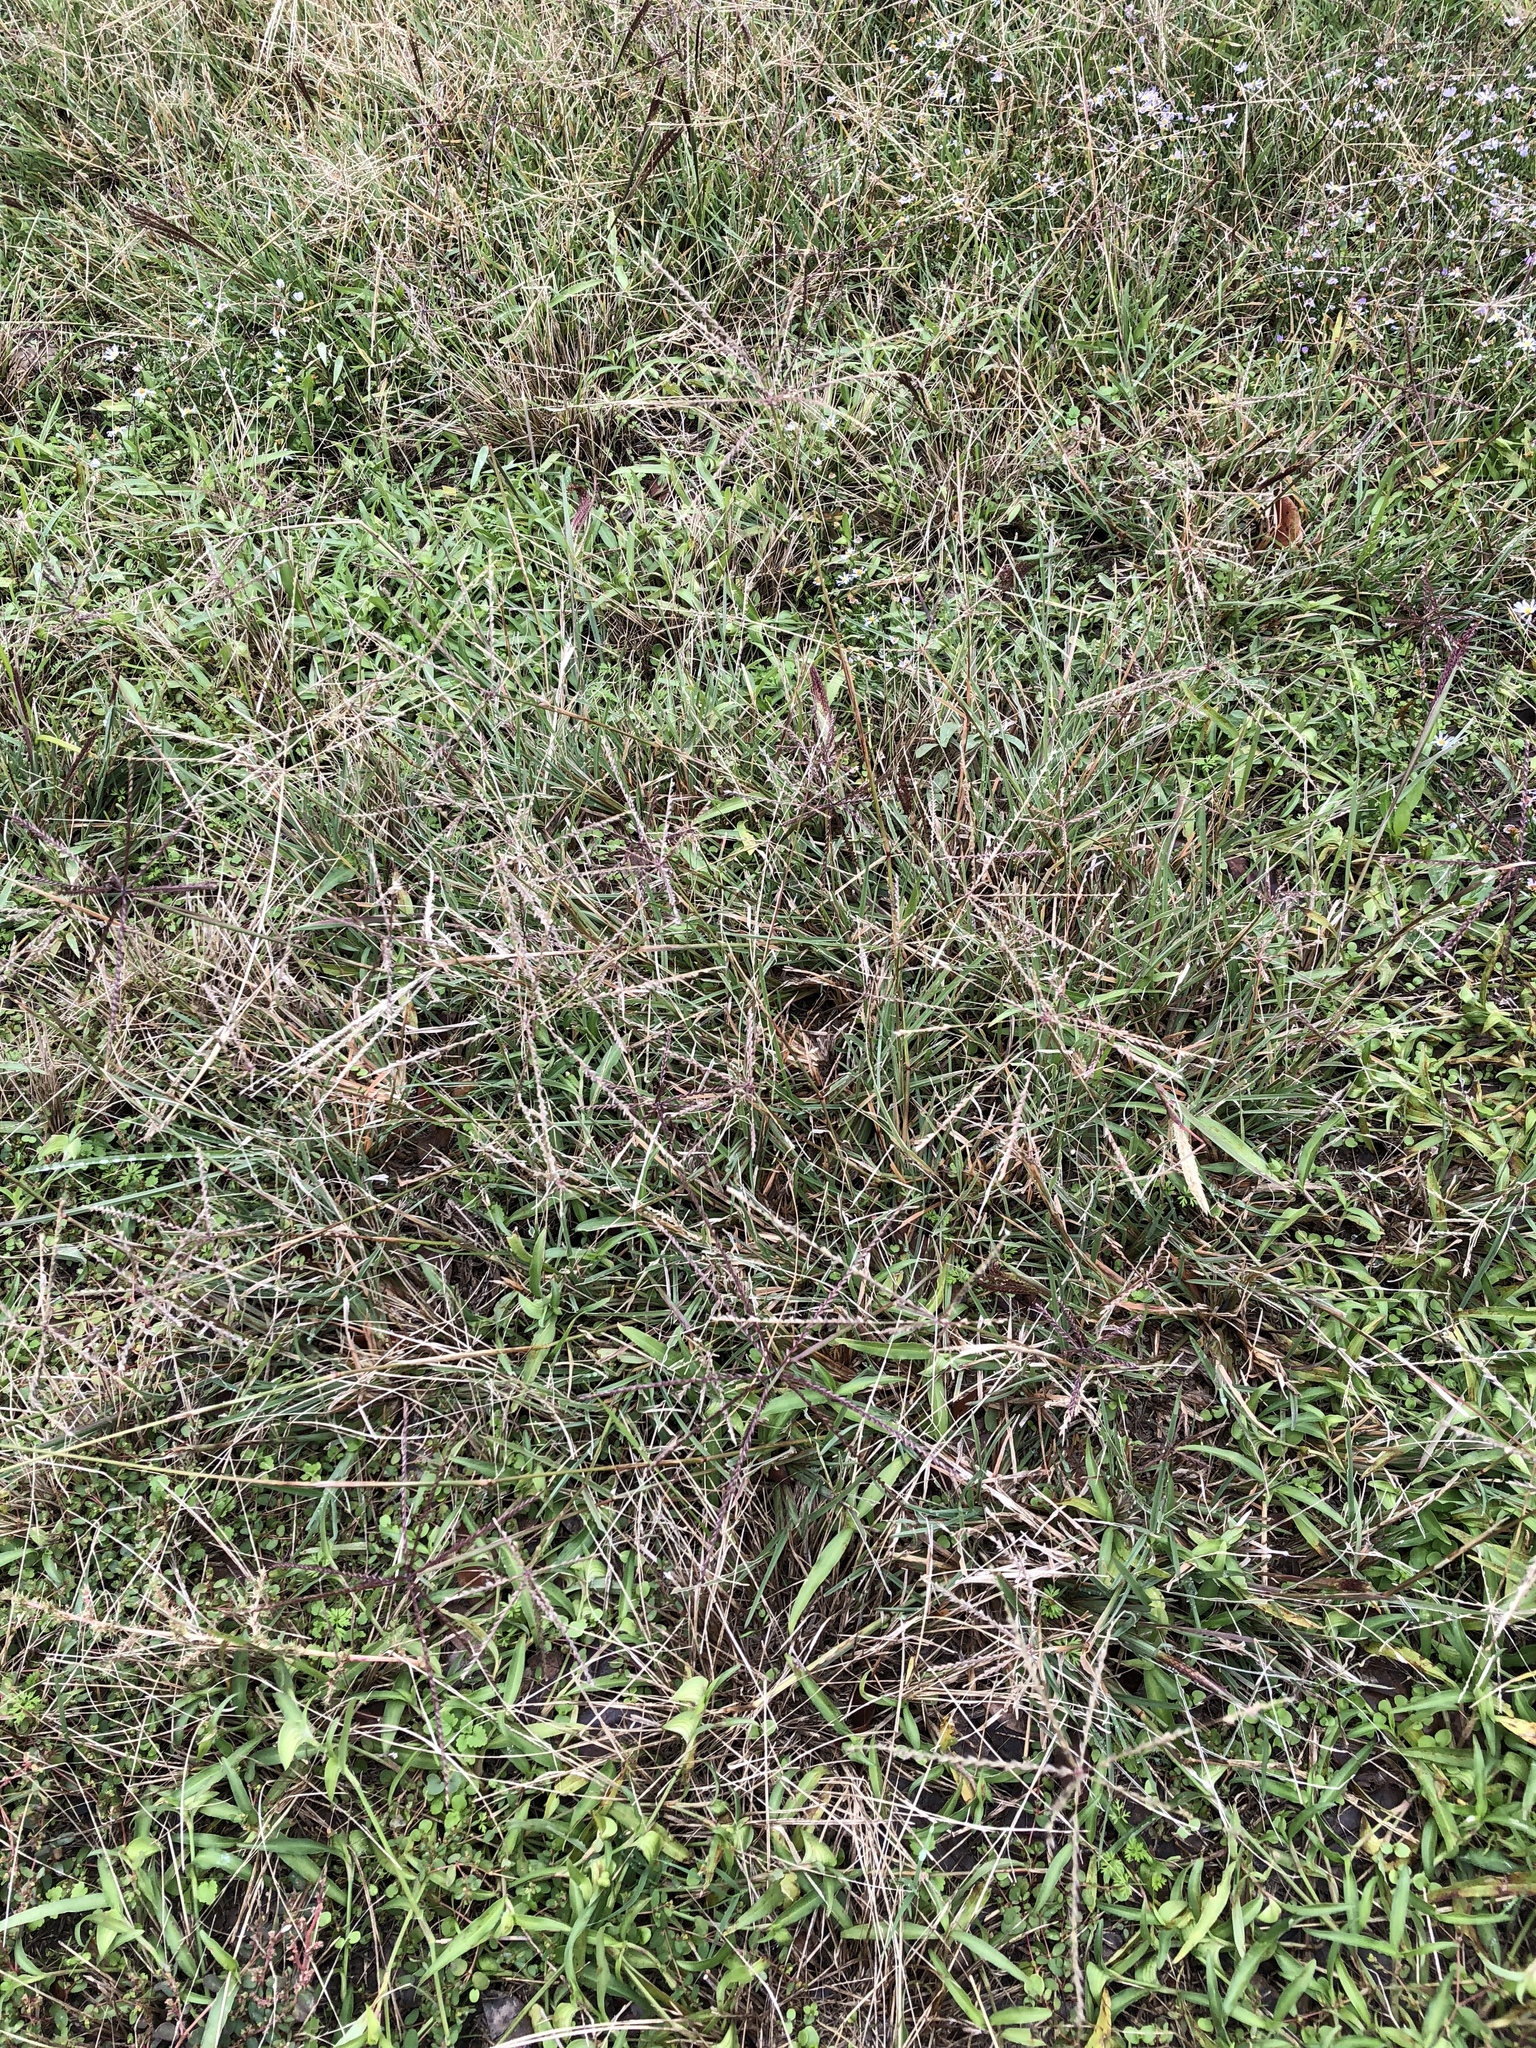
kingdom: Plantae
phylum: Tracheophyta
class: Liliopsida
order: Poales
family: Poaceae
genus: Chloris
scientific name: Chloris verticillata
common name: Tumble windmill grass
